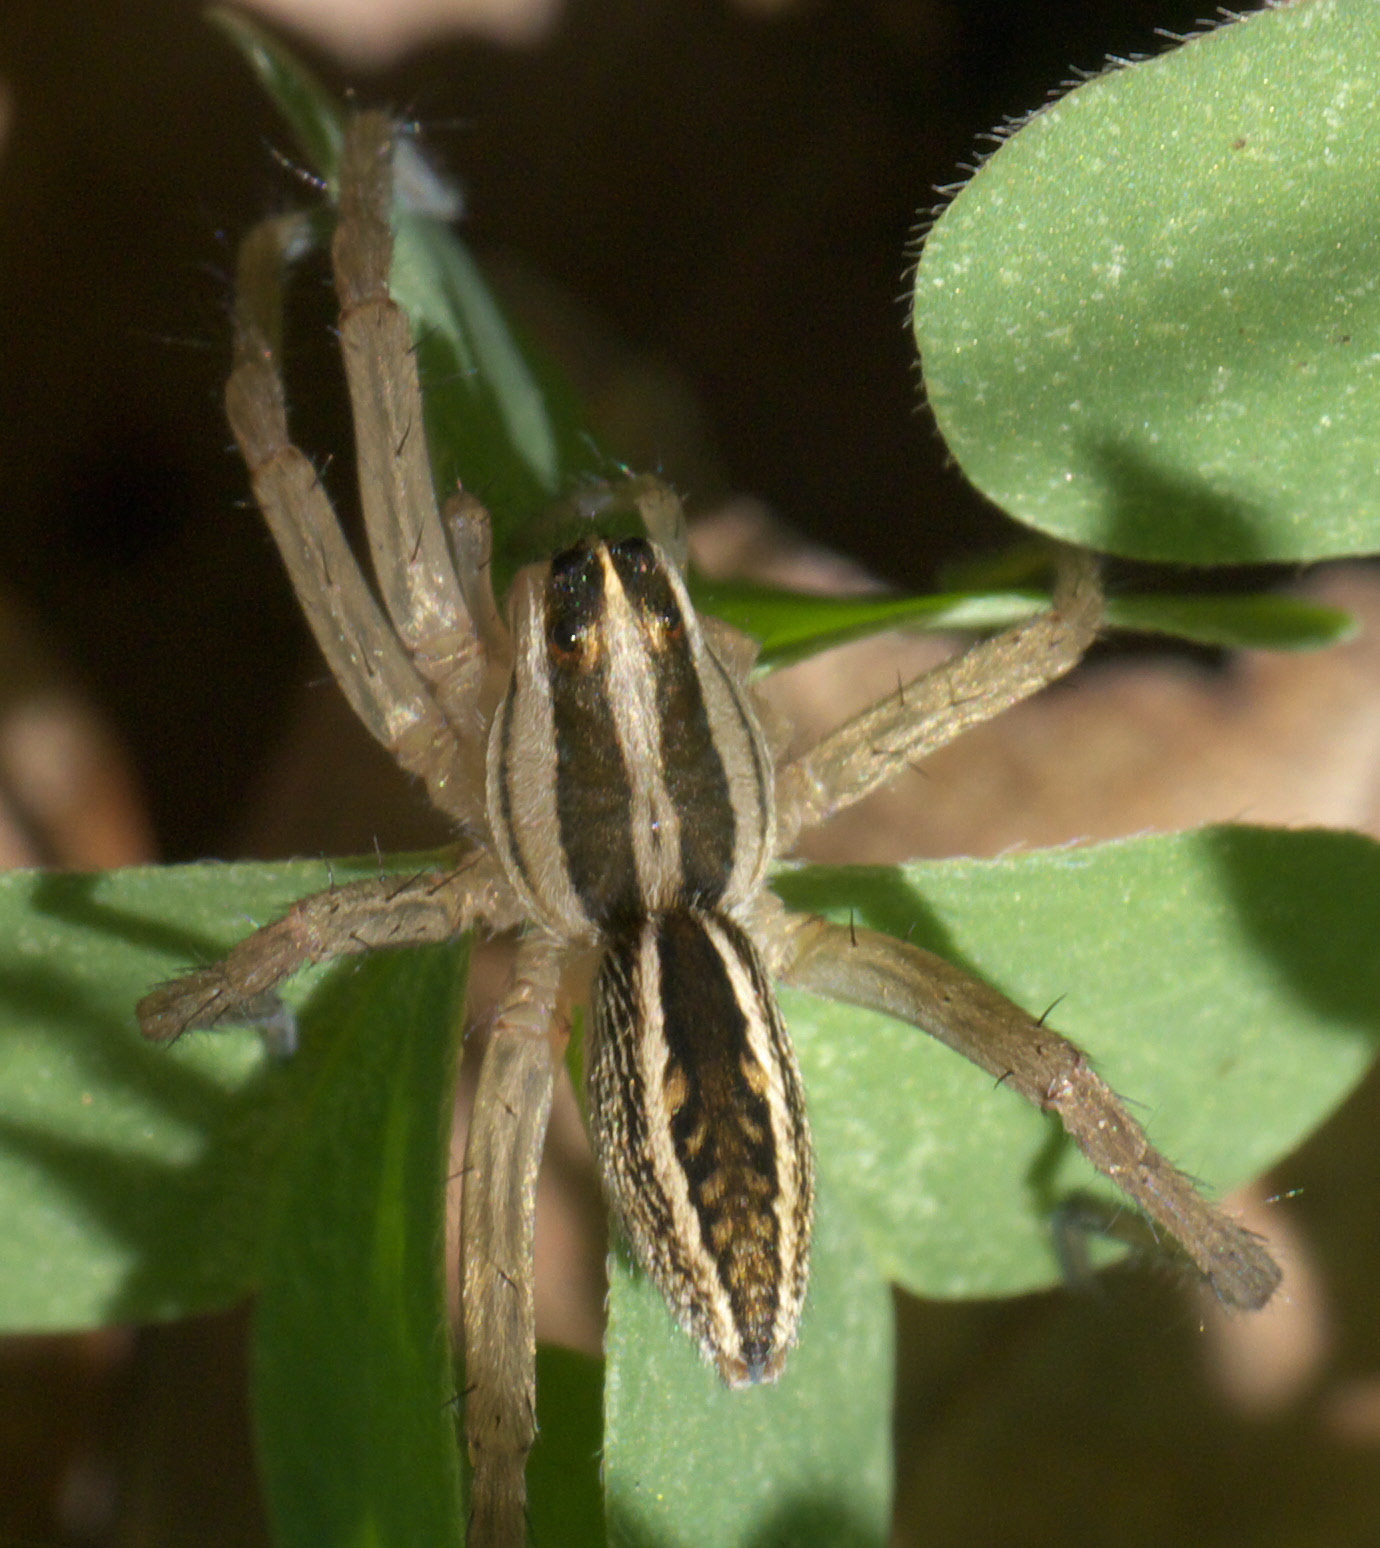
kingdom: Animalia
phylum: Arthropoda
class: Arachnida
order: Araneae
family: Lycosidae
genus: Rabidosa
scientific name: Rabidosa rabida
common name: Rabid wolf spider
